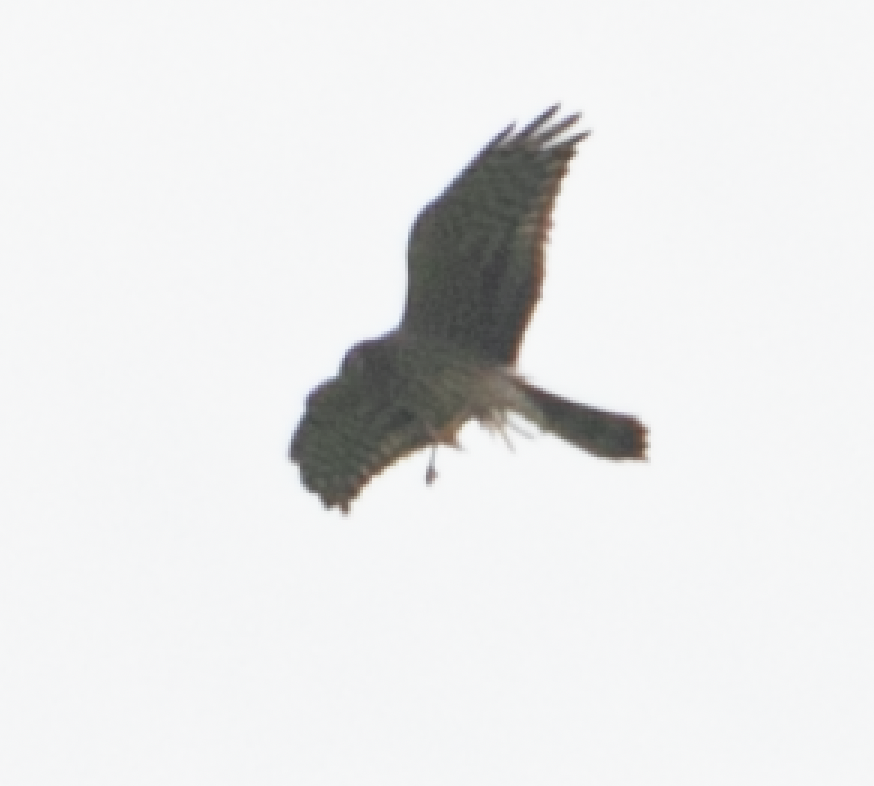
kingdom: Animalia
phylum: Chordata
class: Aves
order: Accipitriformes
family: Accipitridae
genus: Circus
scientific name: Circus pygargus
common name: Montagu's harrier
